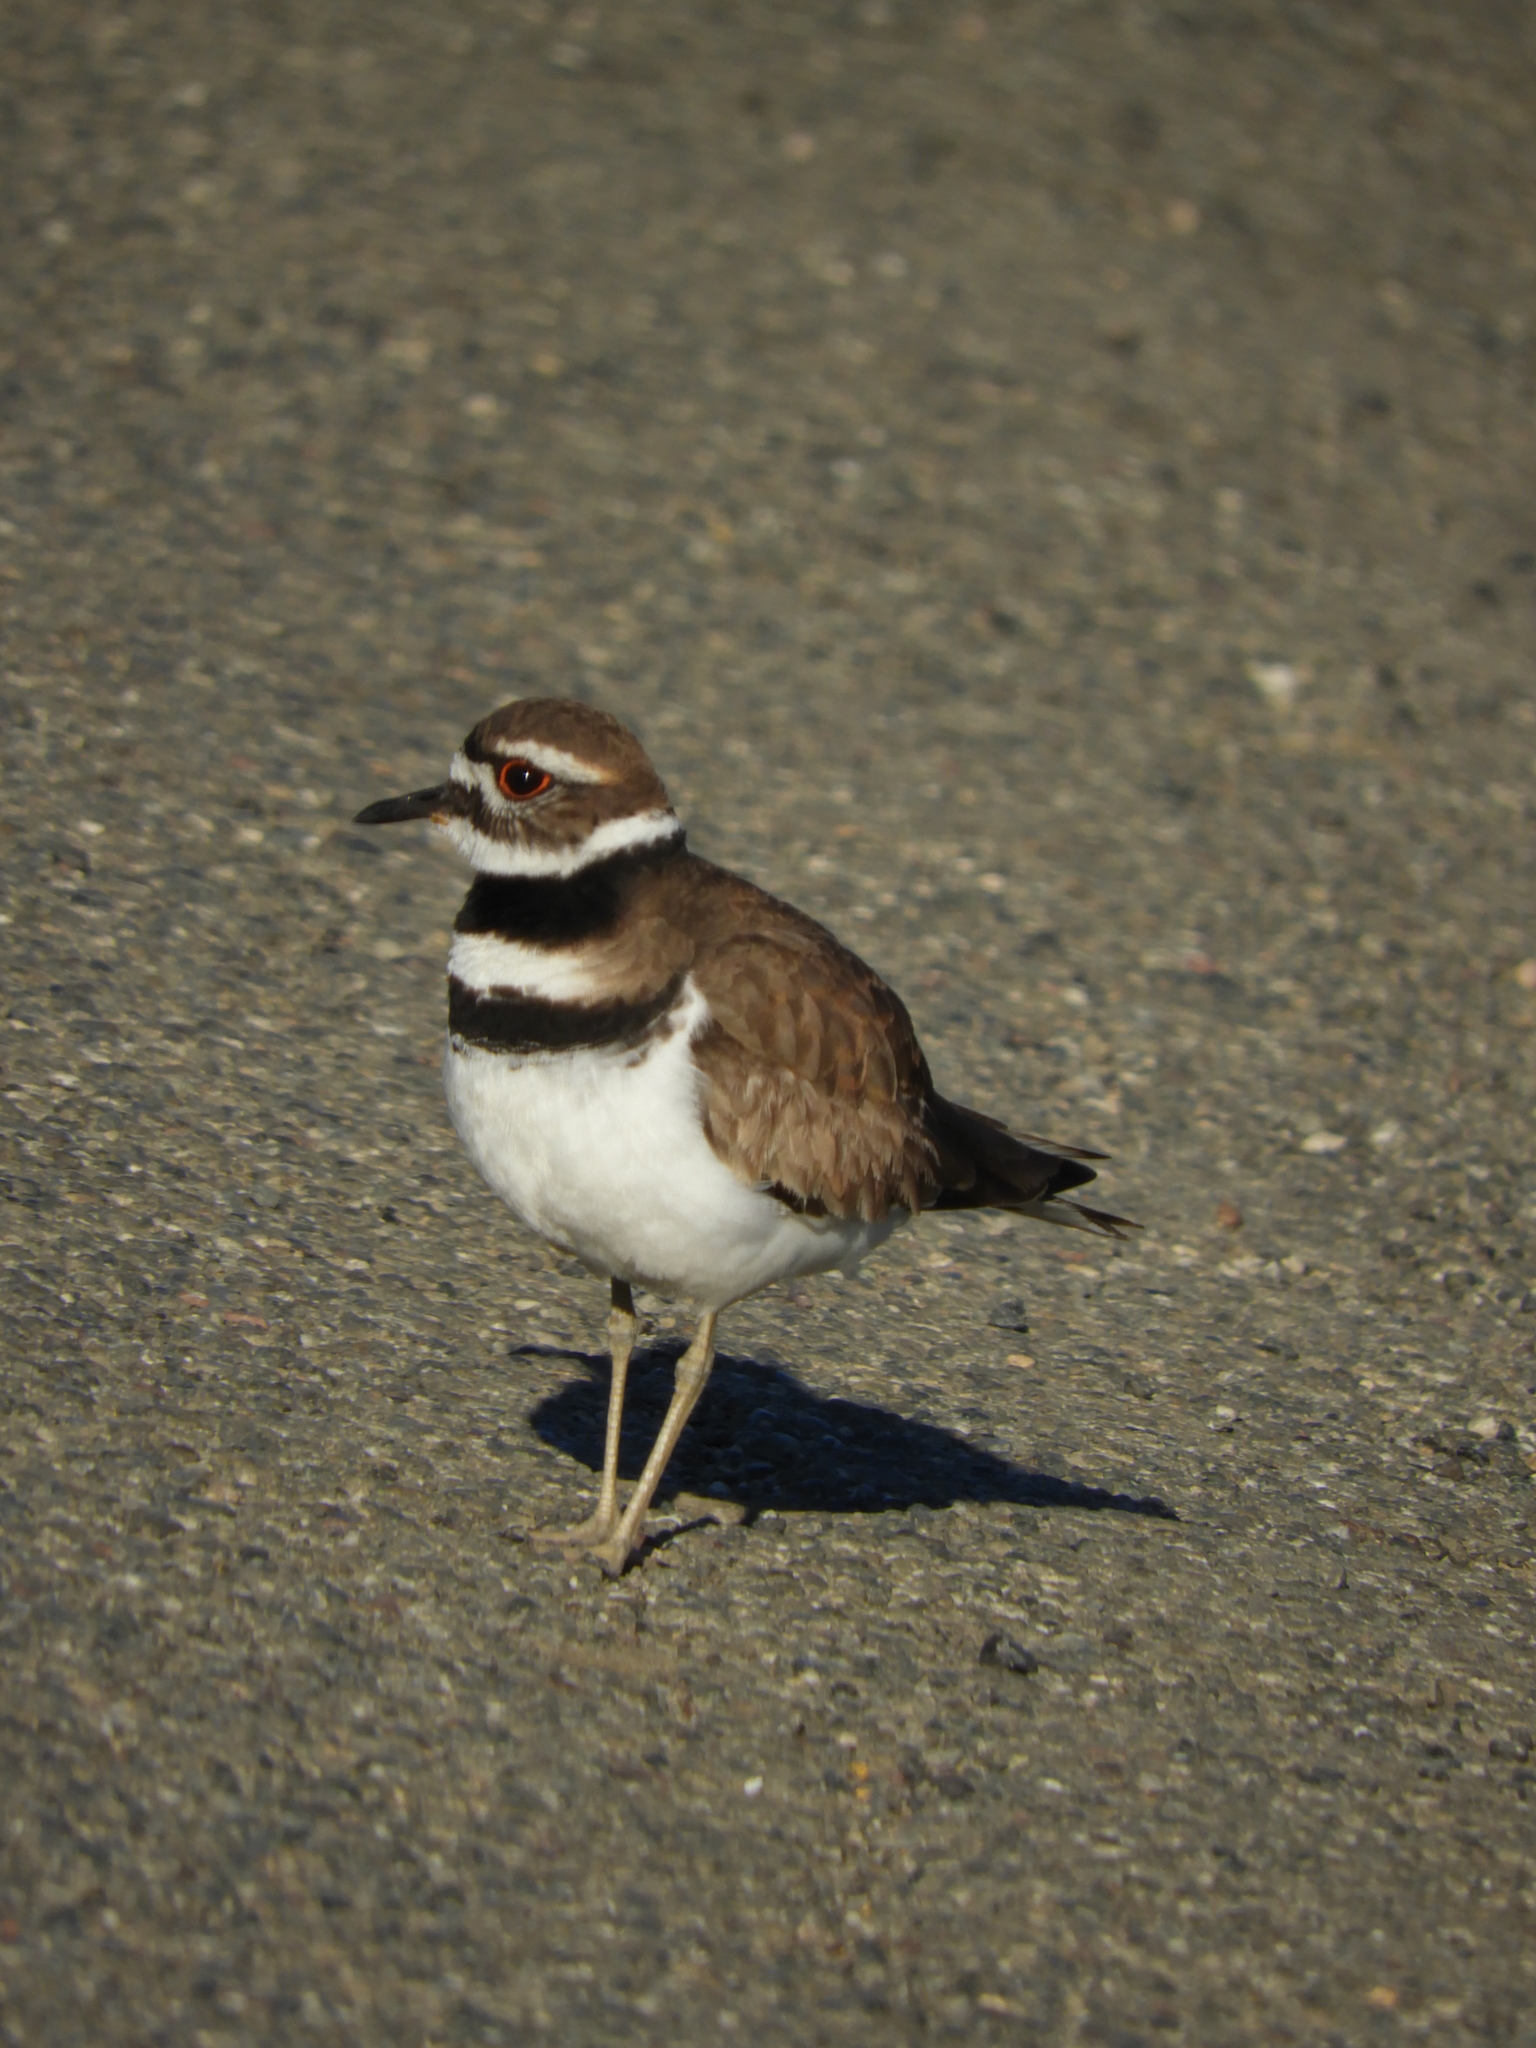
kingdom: Animalia
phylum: Chordata
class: Aves
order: Charadriiformes
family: Charadriidae
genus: Charadrius
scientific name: Charadrius vociferus
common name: Killdeer
